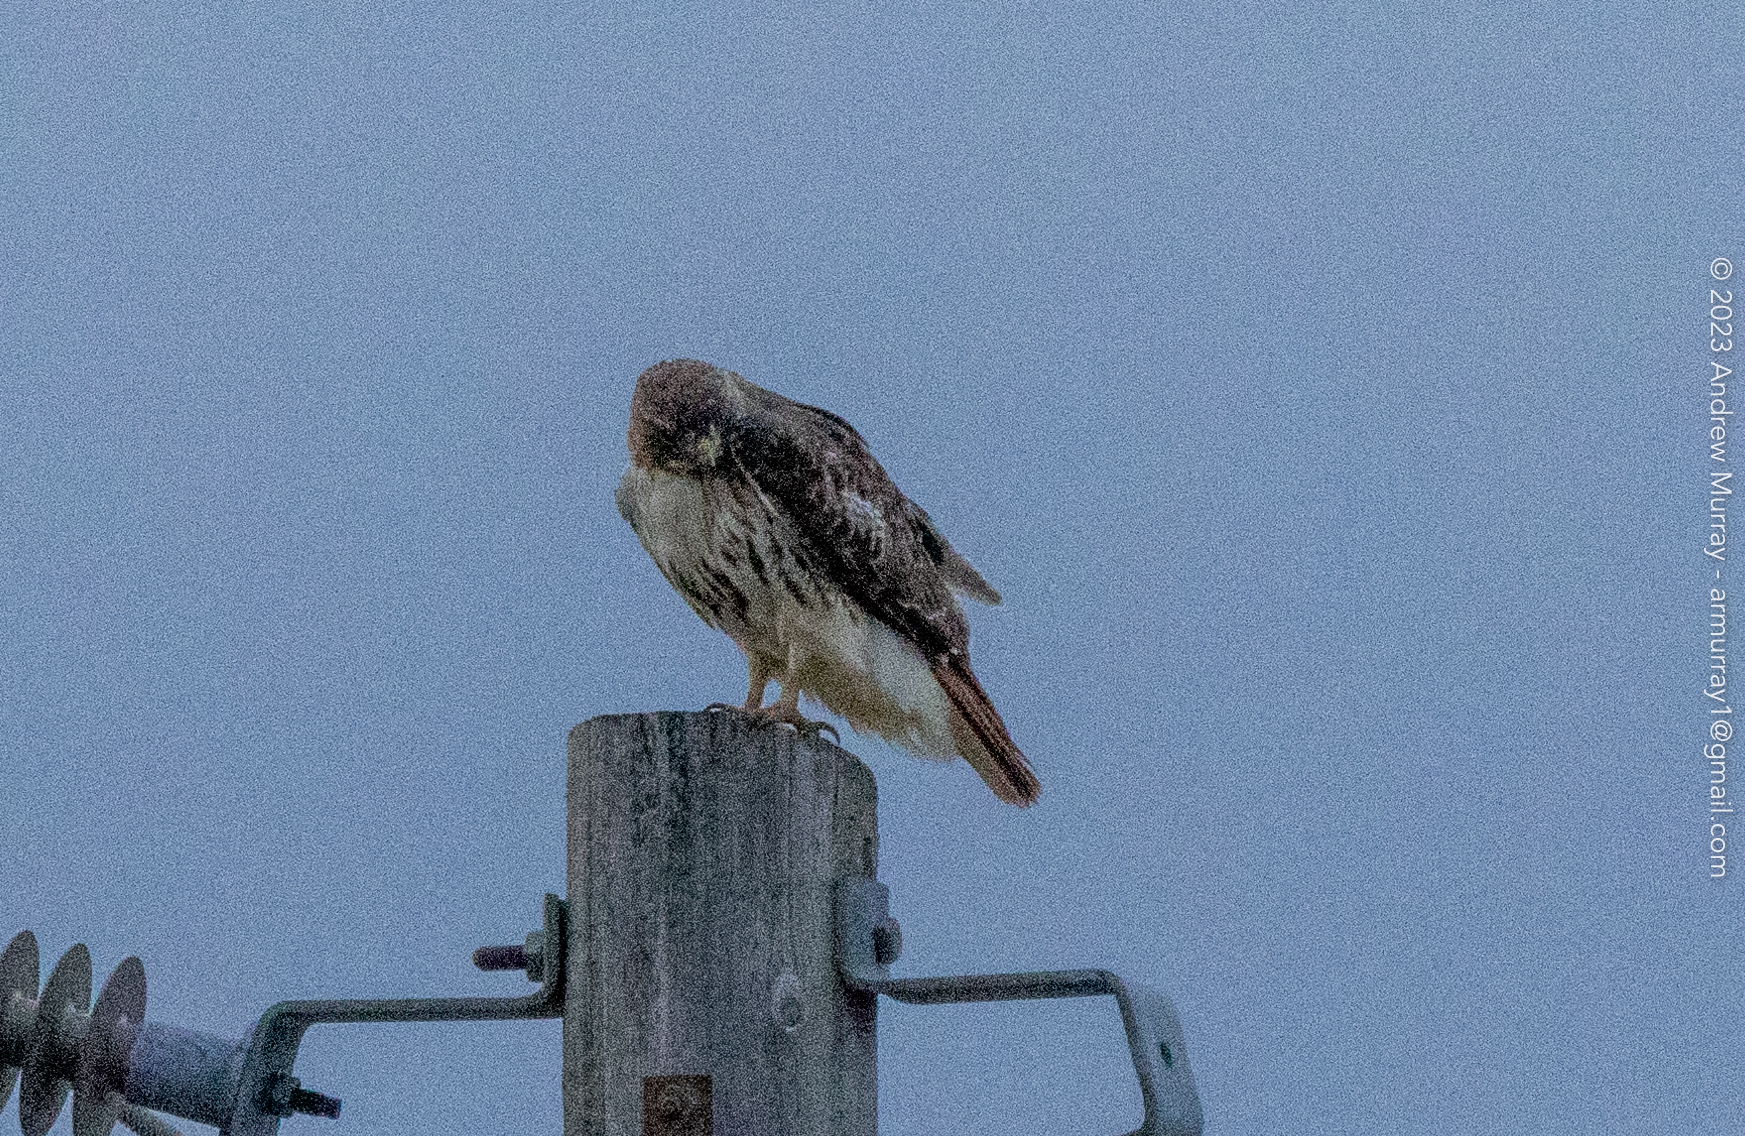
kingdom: Animalia
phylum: Chordata
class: Aves
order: Accipitriformes
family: Accipitridae
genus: Buteo
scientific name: Buteo jamaicensis
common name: Red-tailed hawk
